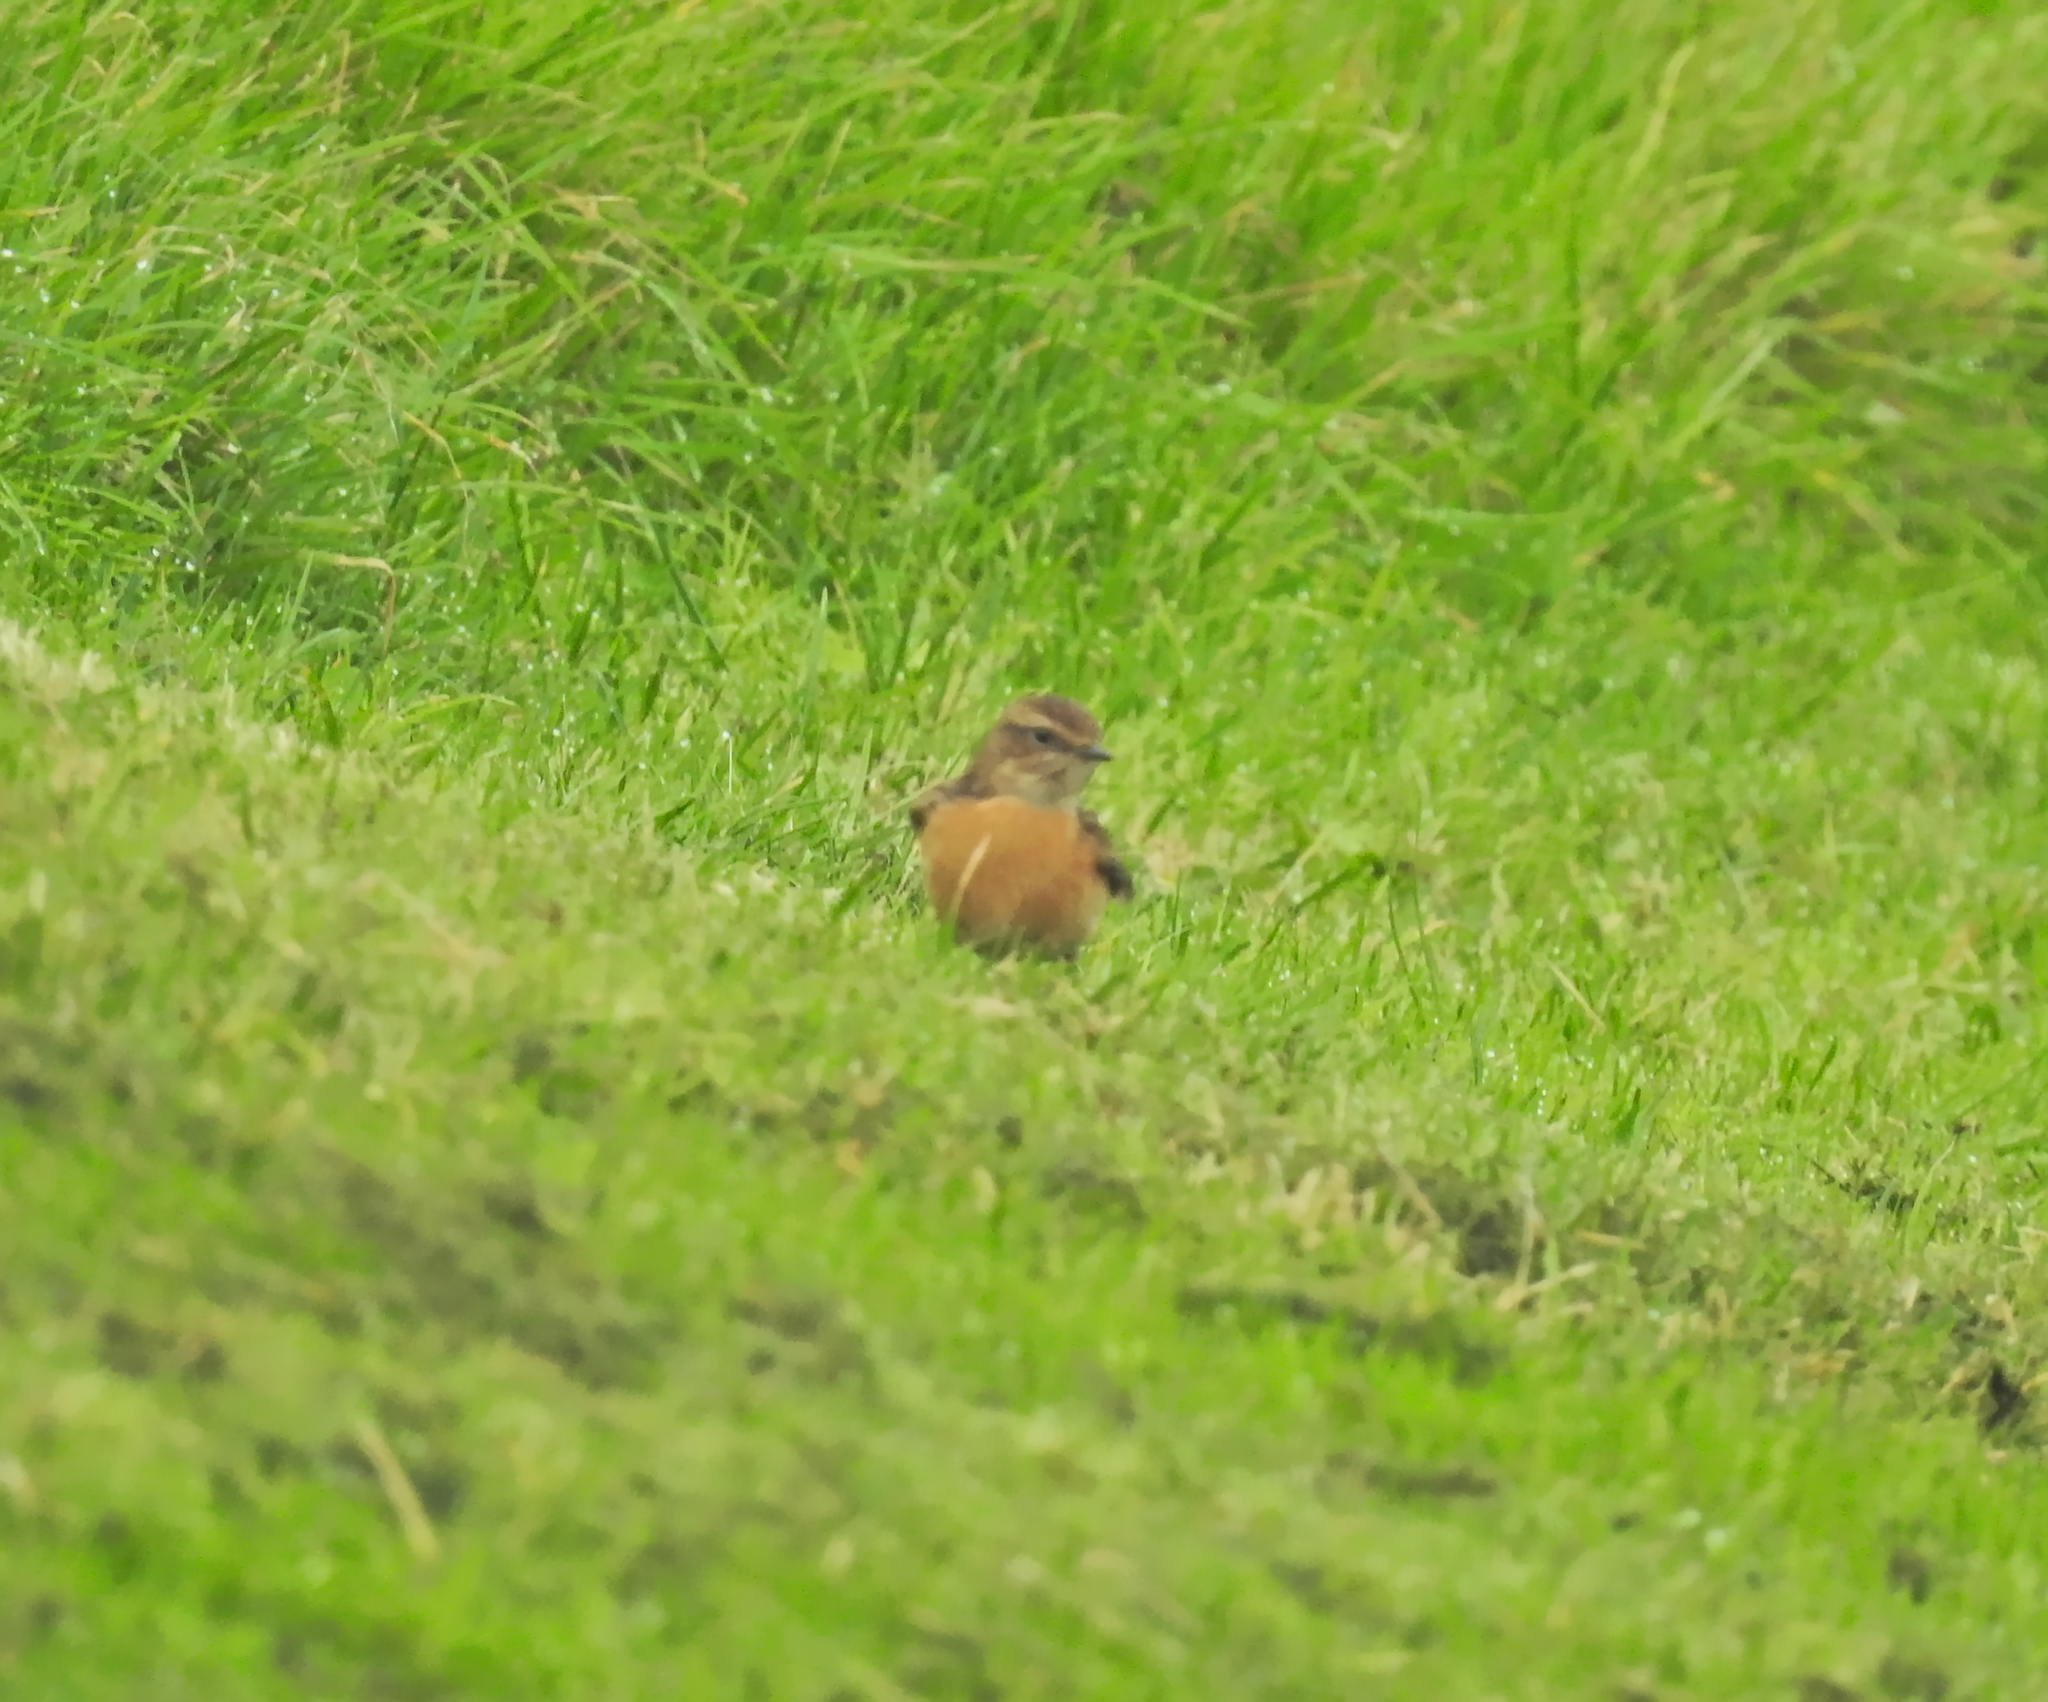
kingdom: Animalia
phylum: Chordata
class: Aves
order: Passeriformes
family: Muscicapidae
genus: Saxicola
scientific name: Saxicola rubicola
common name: European stonechat
